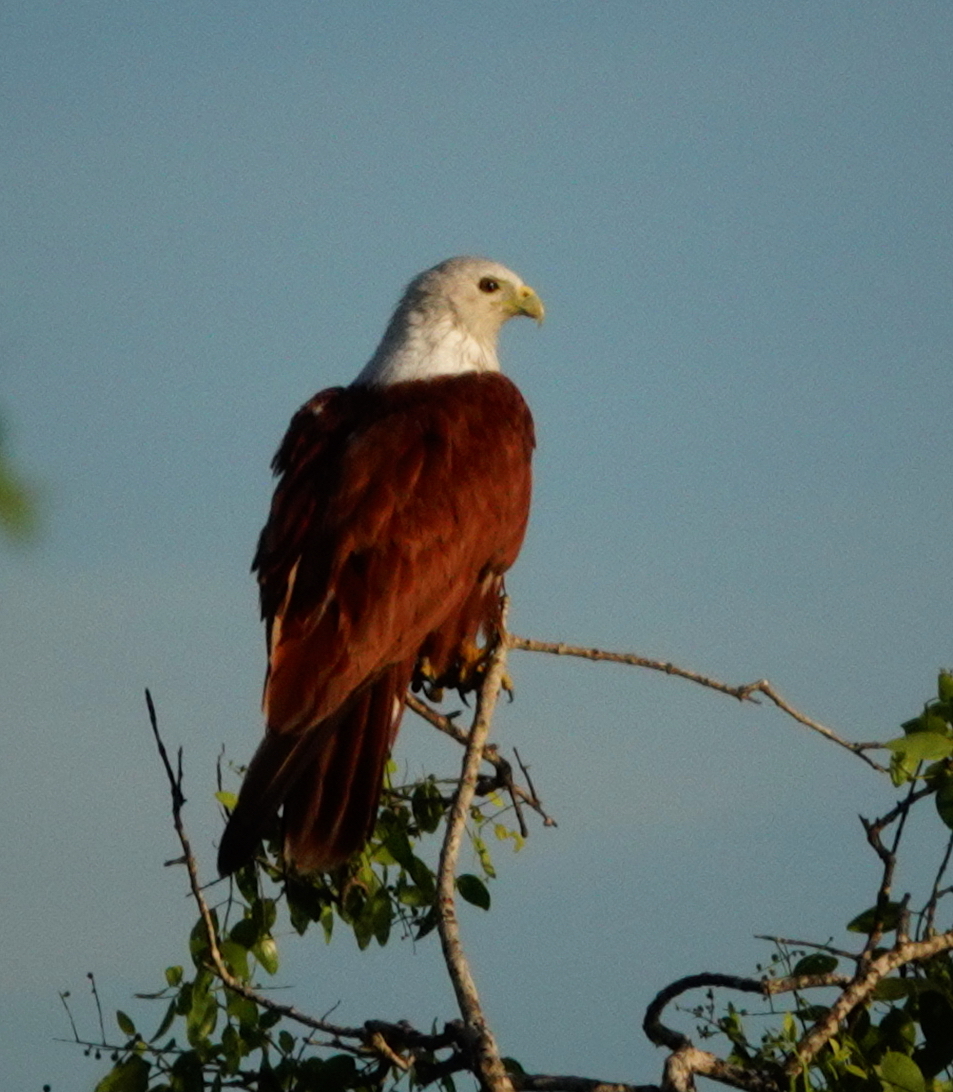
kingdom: Animalia
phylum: Chordata
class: Aves
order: Accipitriformes
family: Accipitridae
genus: Haliastur
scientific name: Haliastur indus
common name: Brahminy kite
